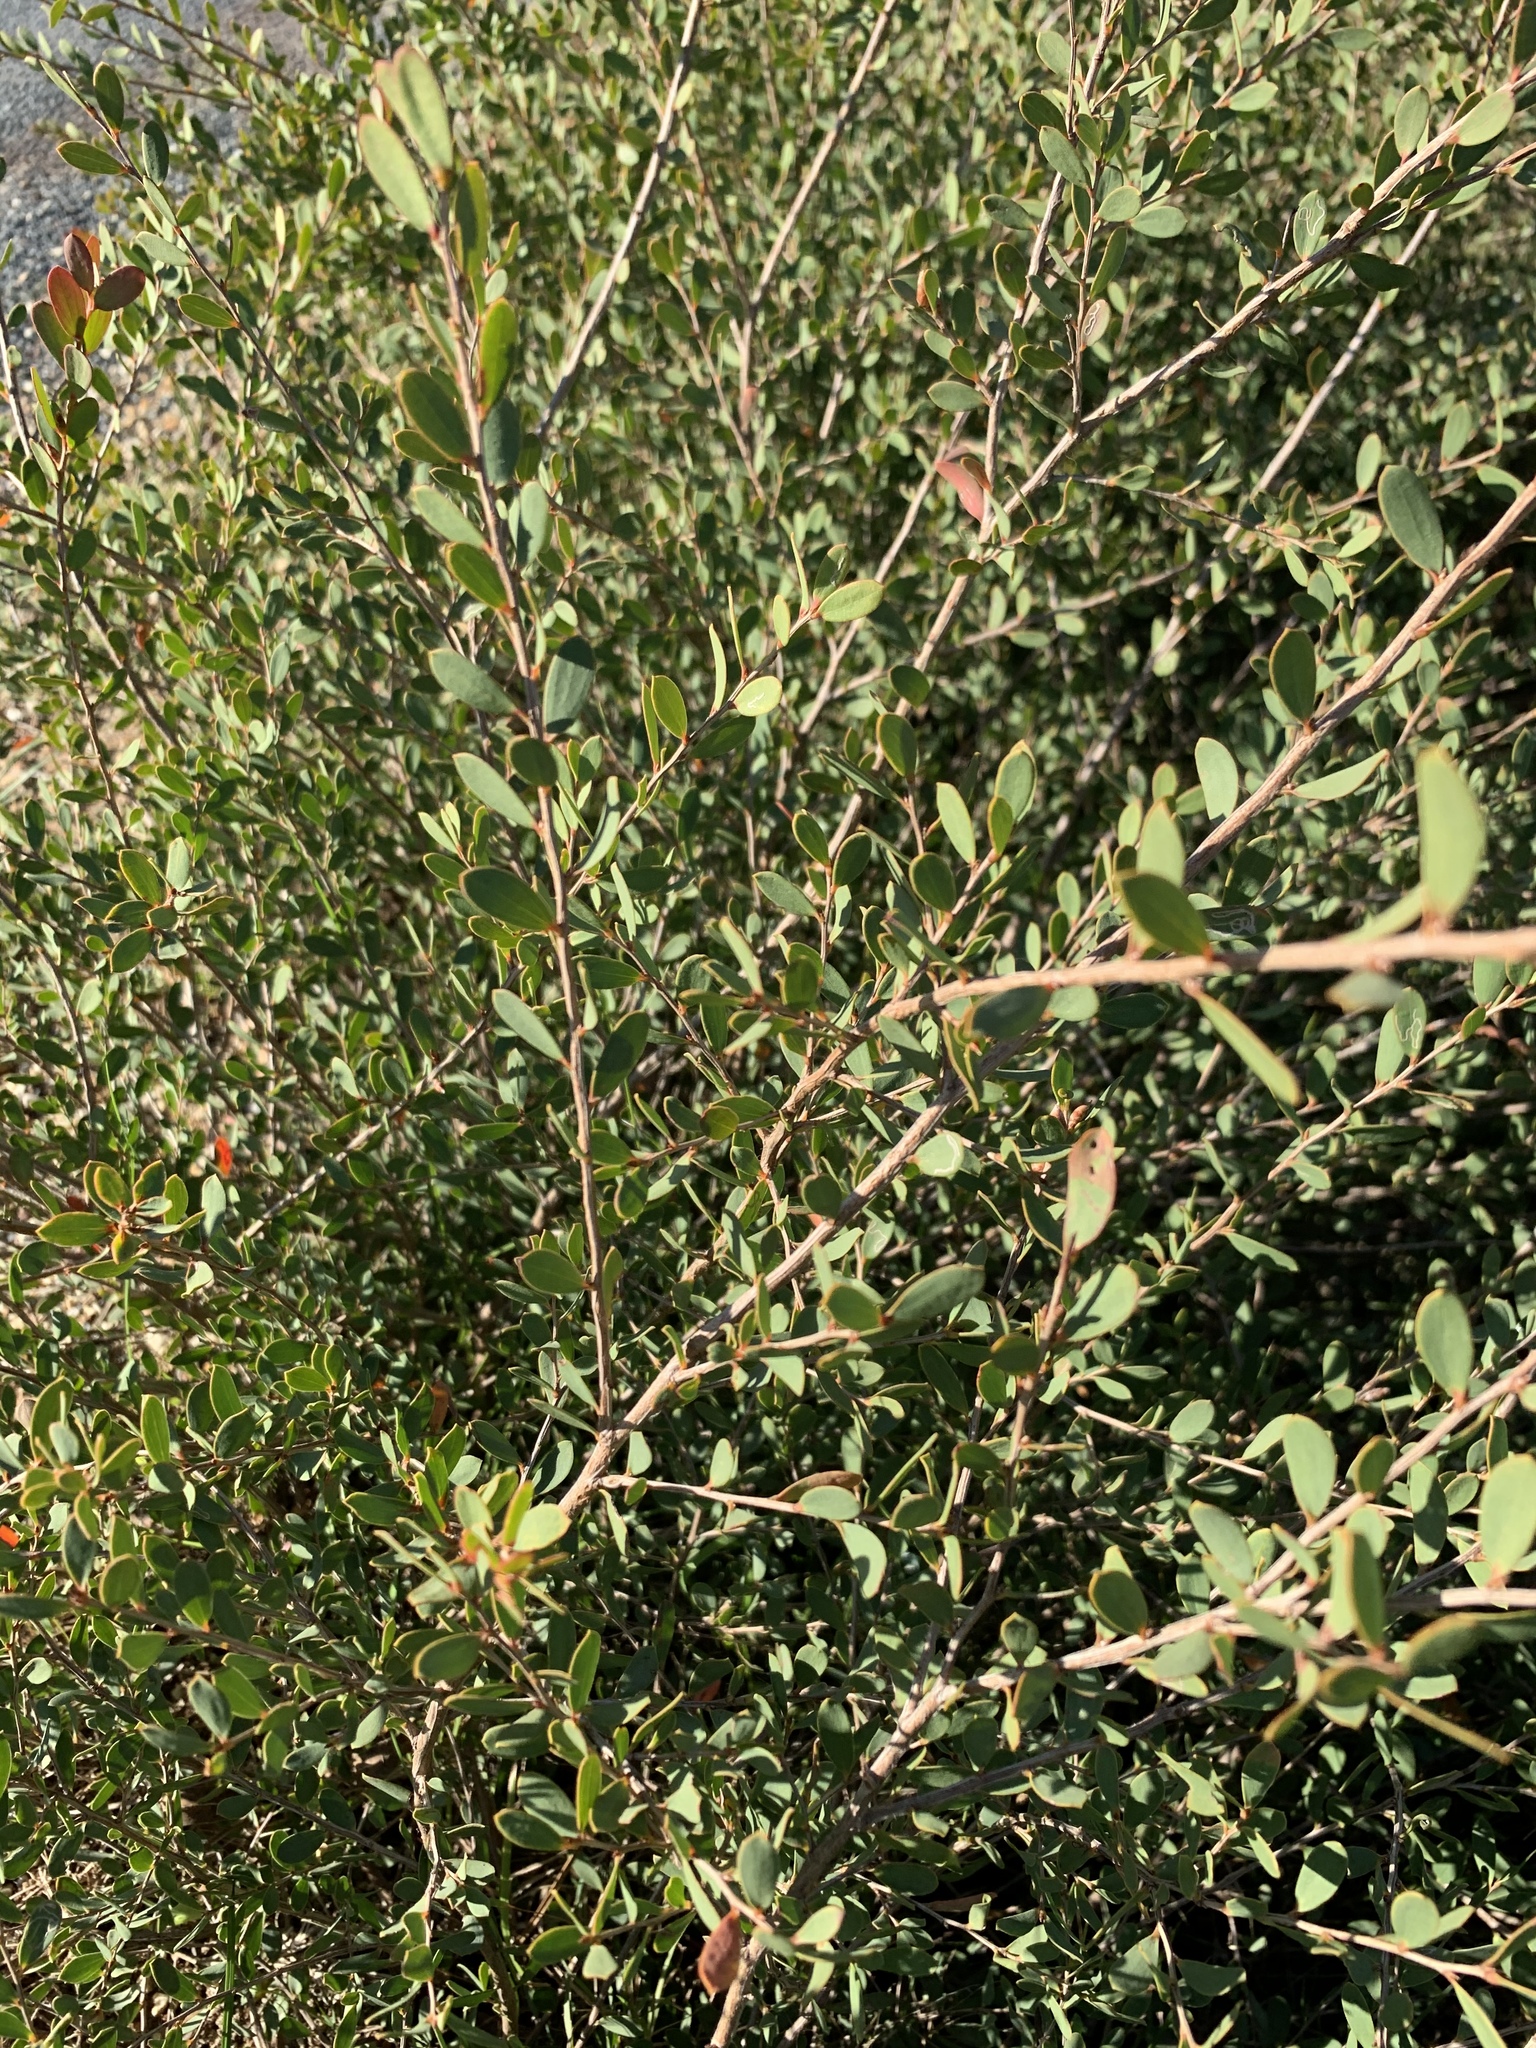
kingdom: Plantae
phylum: Tracheophyta
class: Magnoliopsida
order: Myrtales
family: Myrtaceae
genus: Leptospermum
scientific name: Leptospermum laevigatum
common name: Australian teatree
